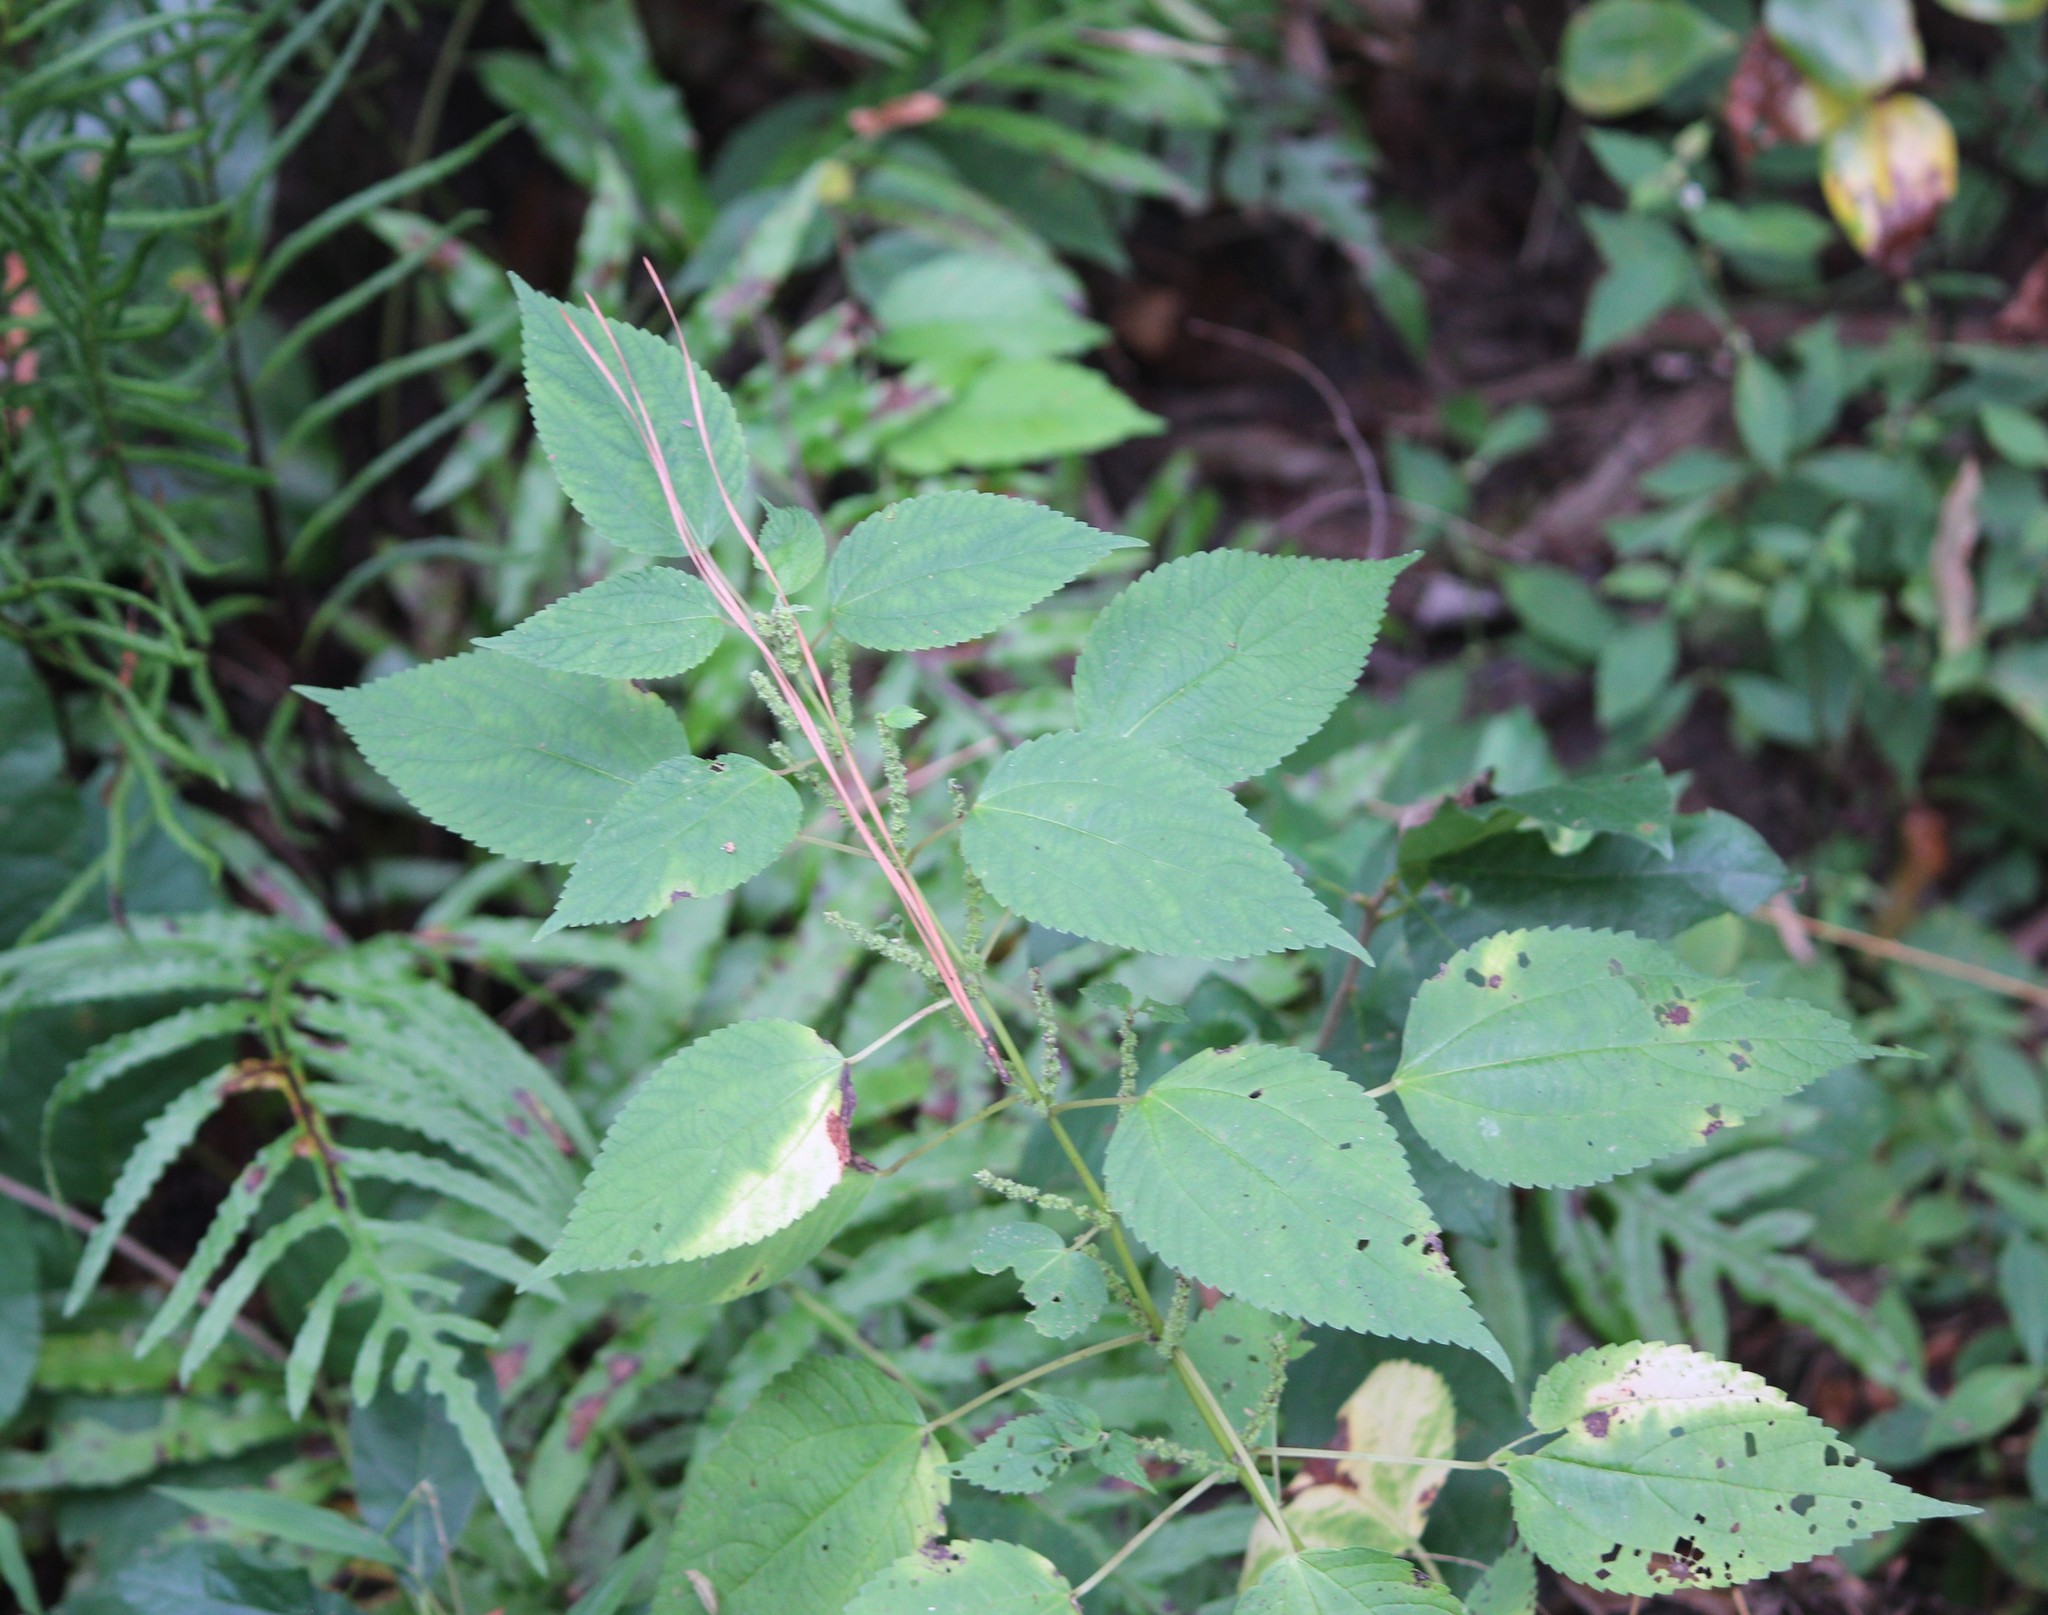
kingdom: Plantae
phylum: Tracheophyta
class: Magnoliopsida
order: Rosales
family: Urticaceae
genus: Boehmeria
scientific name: Boehmeria cylindrica
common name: Bog-hemp
